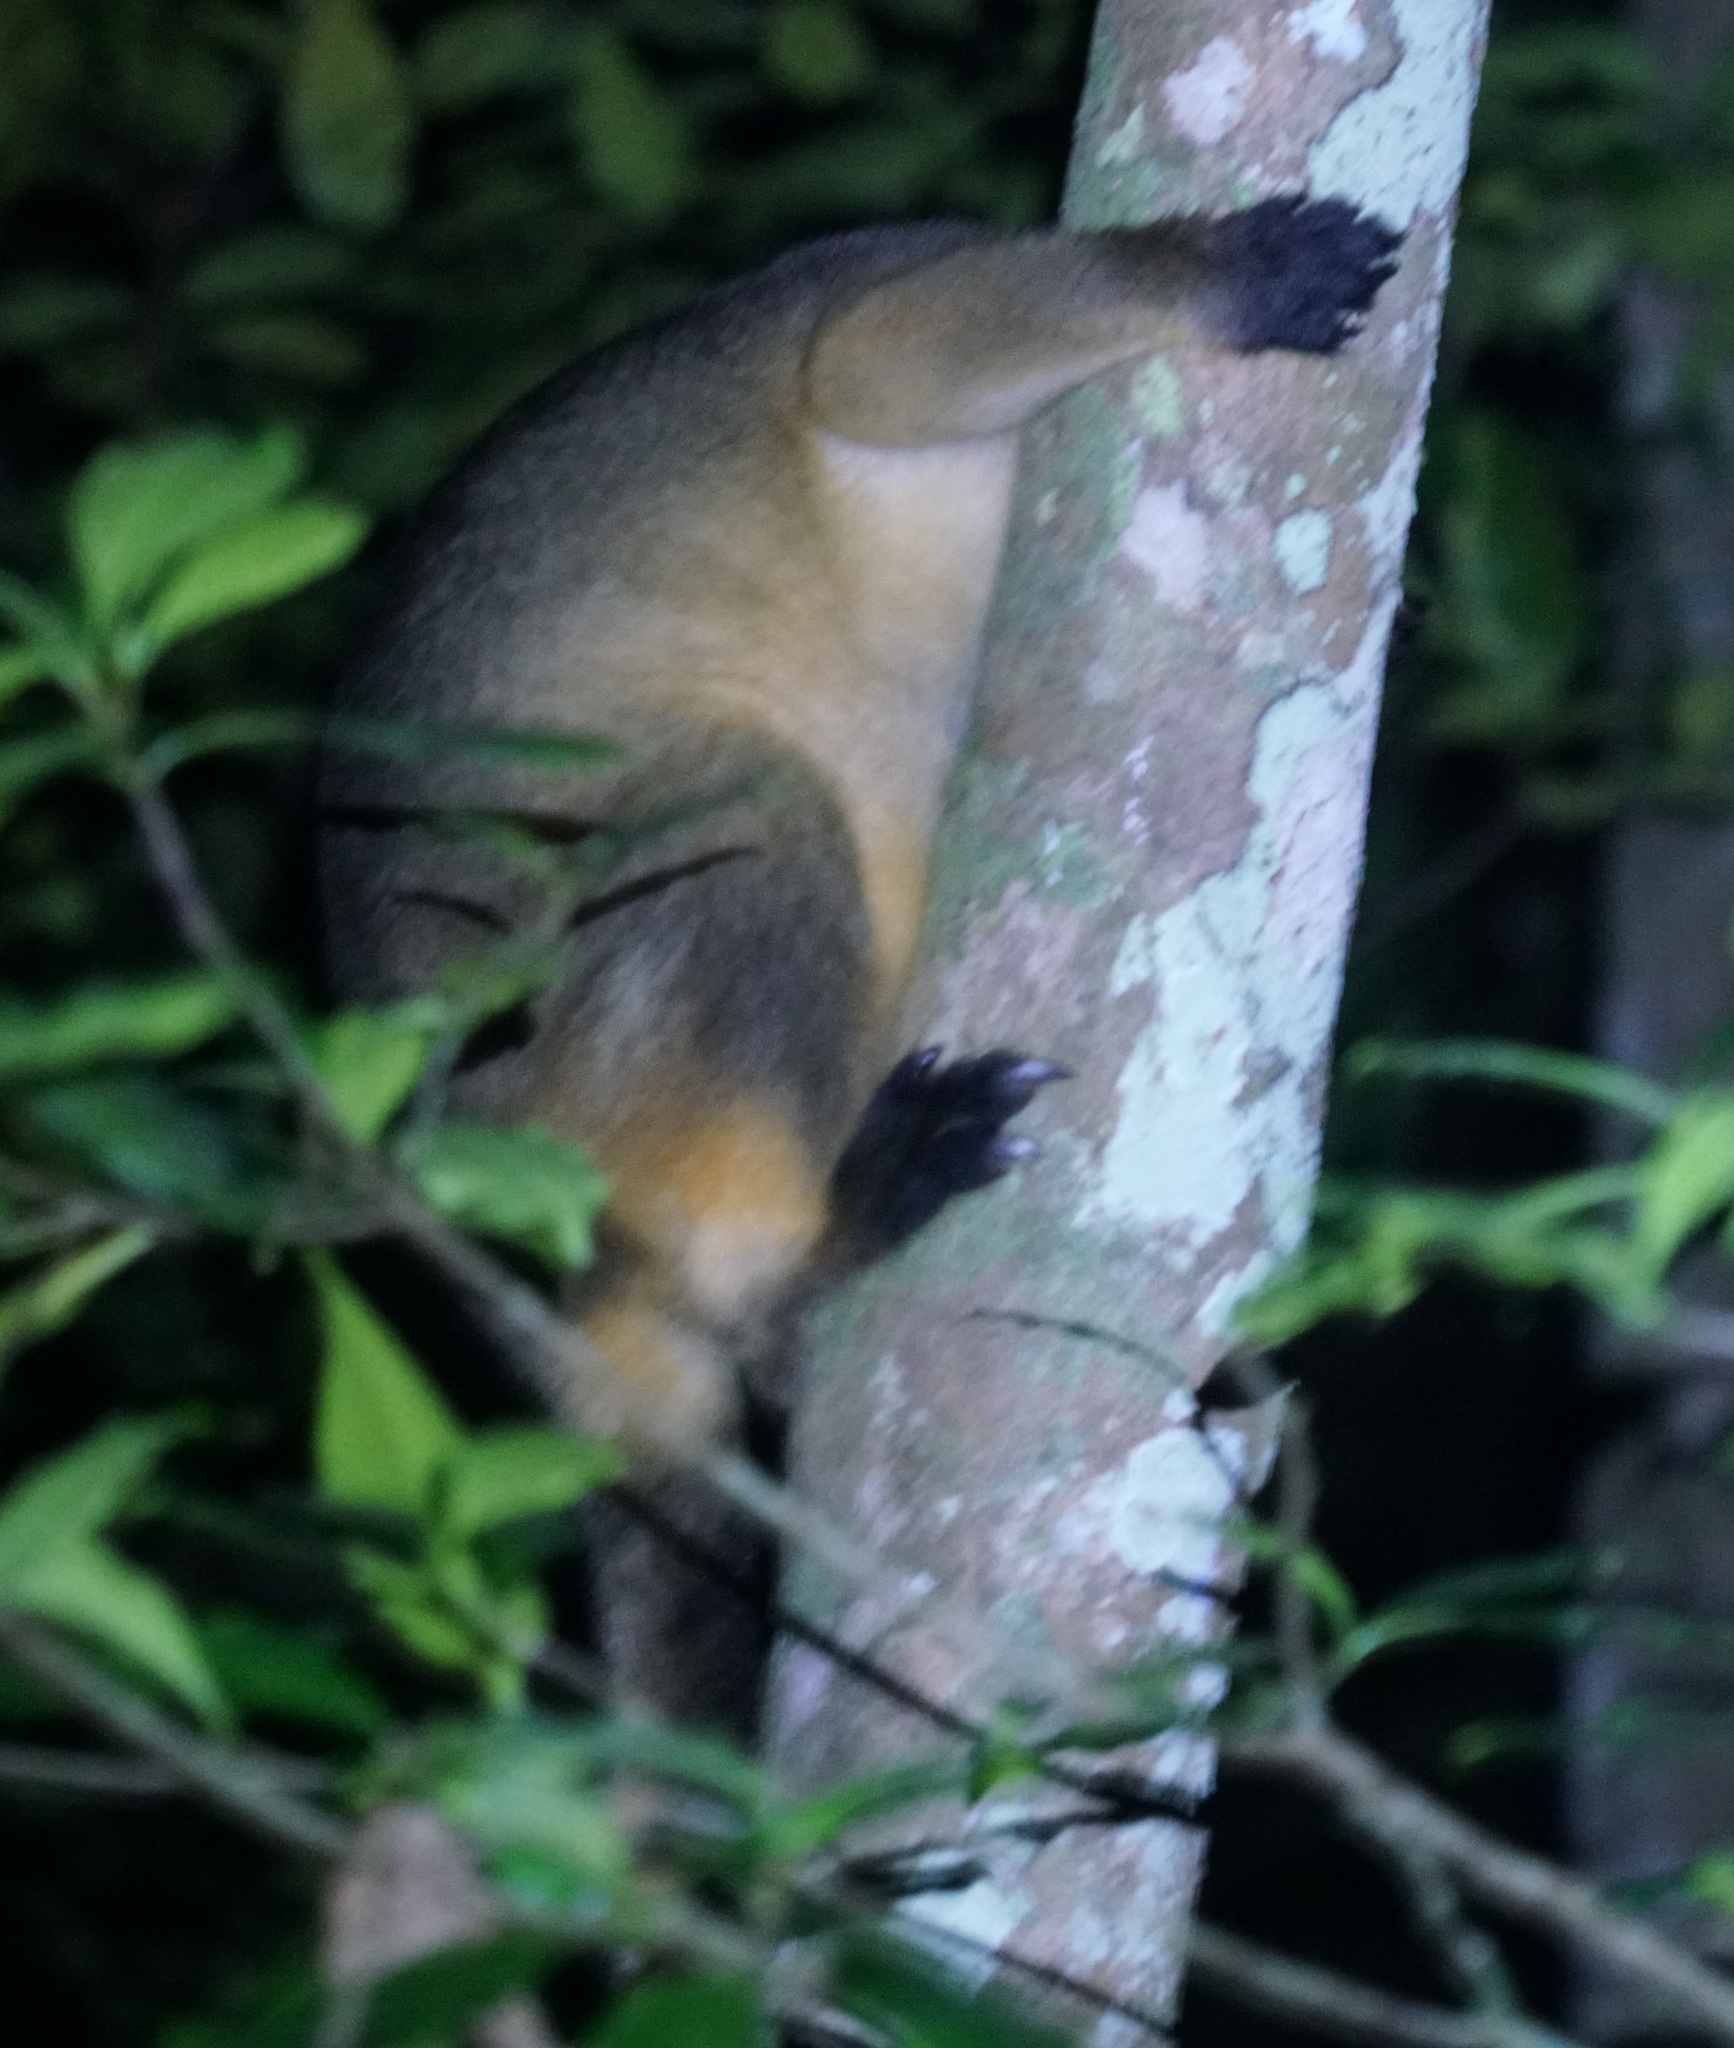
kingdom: Animalia
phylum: Chordata
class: Mammalia
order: Diprotodontia
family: Macropodidae
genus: Dendrolagus
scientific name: Dendrolagus lumholtzi
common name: Lumholtz's tree kangaroo
